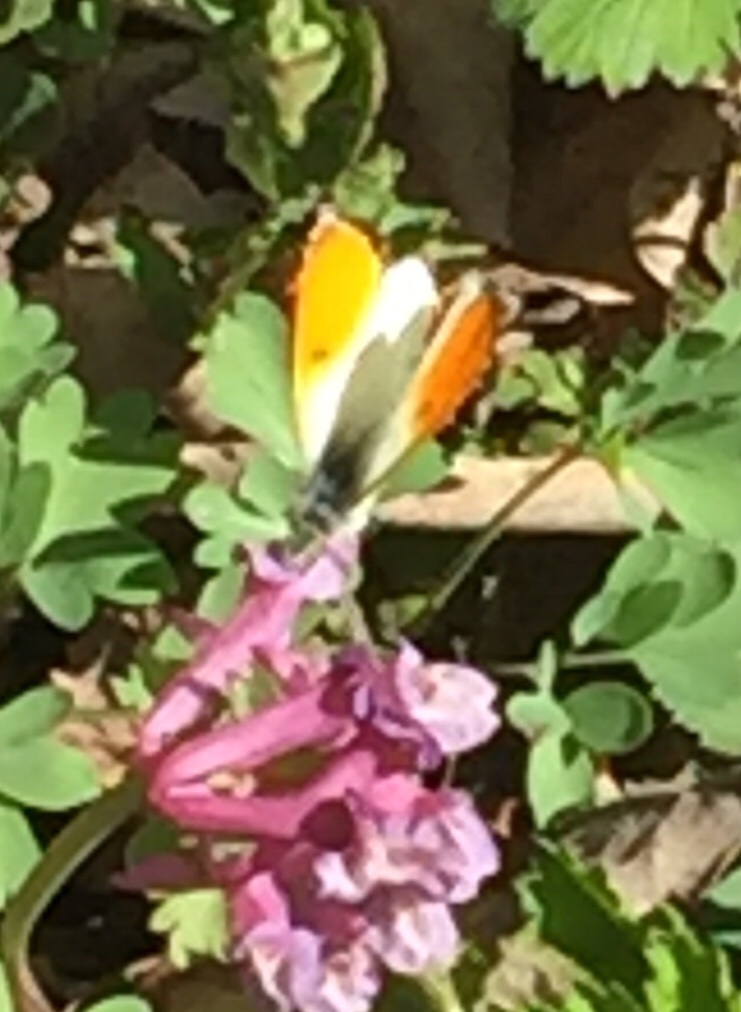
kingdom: Animalia
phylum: Arthropoda
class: Insecta
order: Lepidoptera
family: Pieridae
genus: Anthocharis
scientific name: Anthocharis cardamines
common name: Orange-tip
